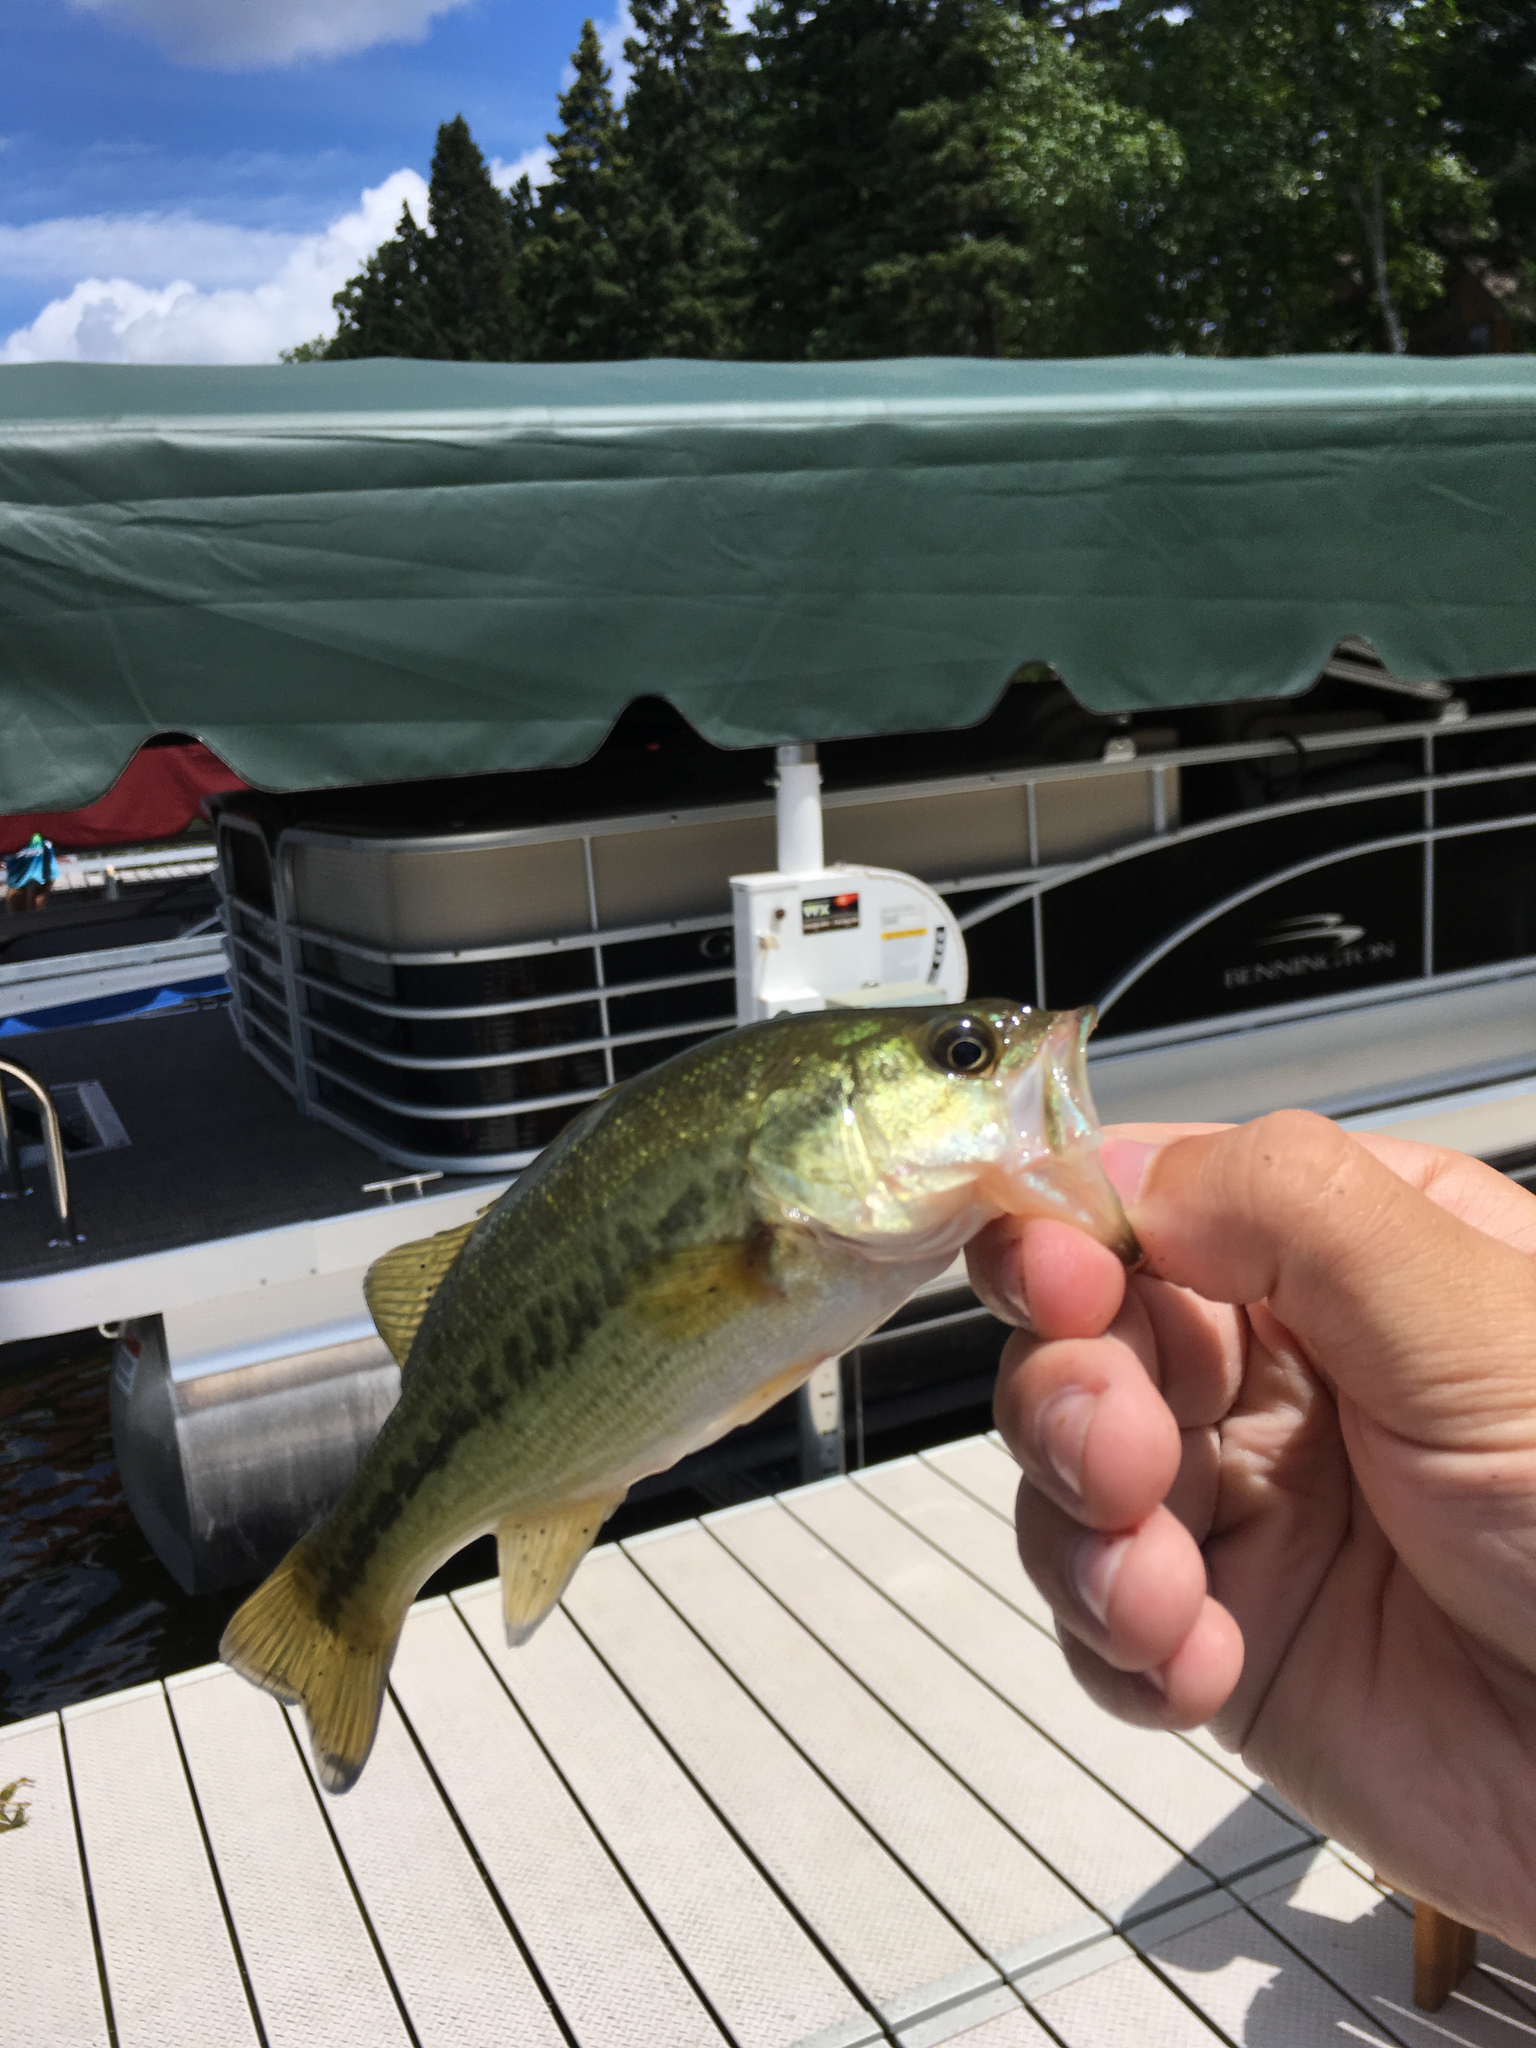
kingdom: Animalia
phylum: Chordata
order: Perciformes
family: Centrarchidae
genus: Micropterus
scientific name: Micropterus
